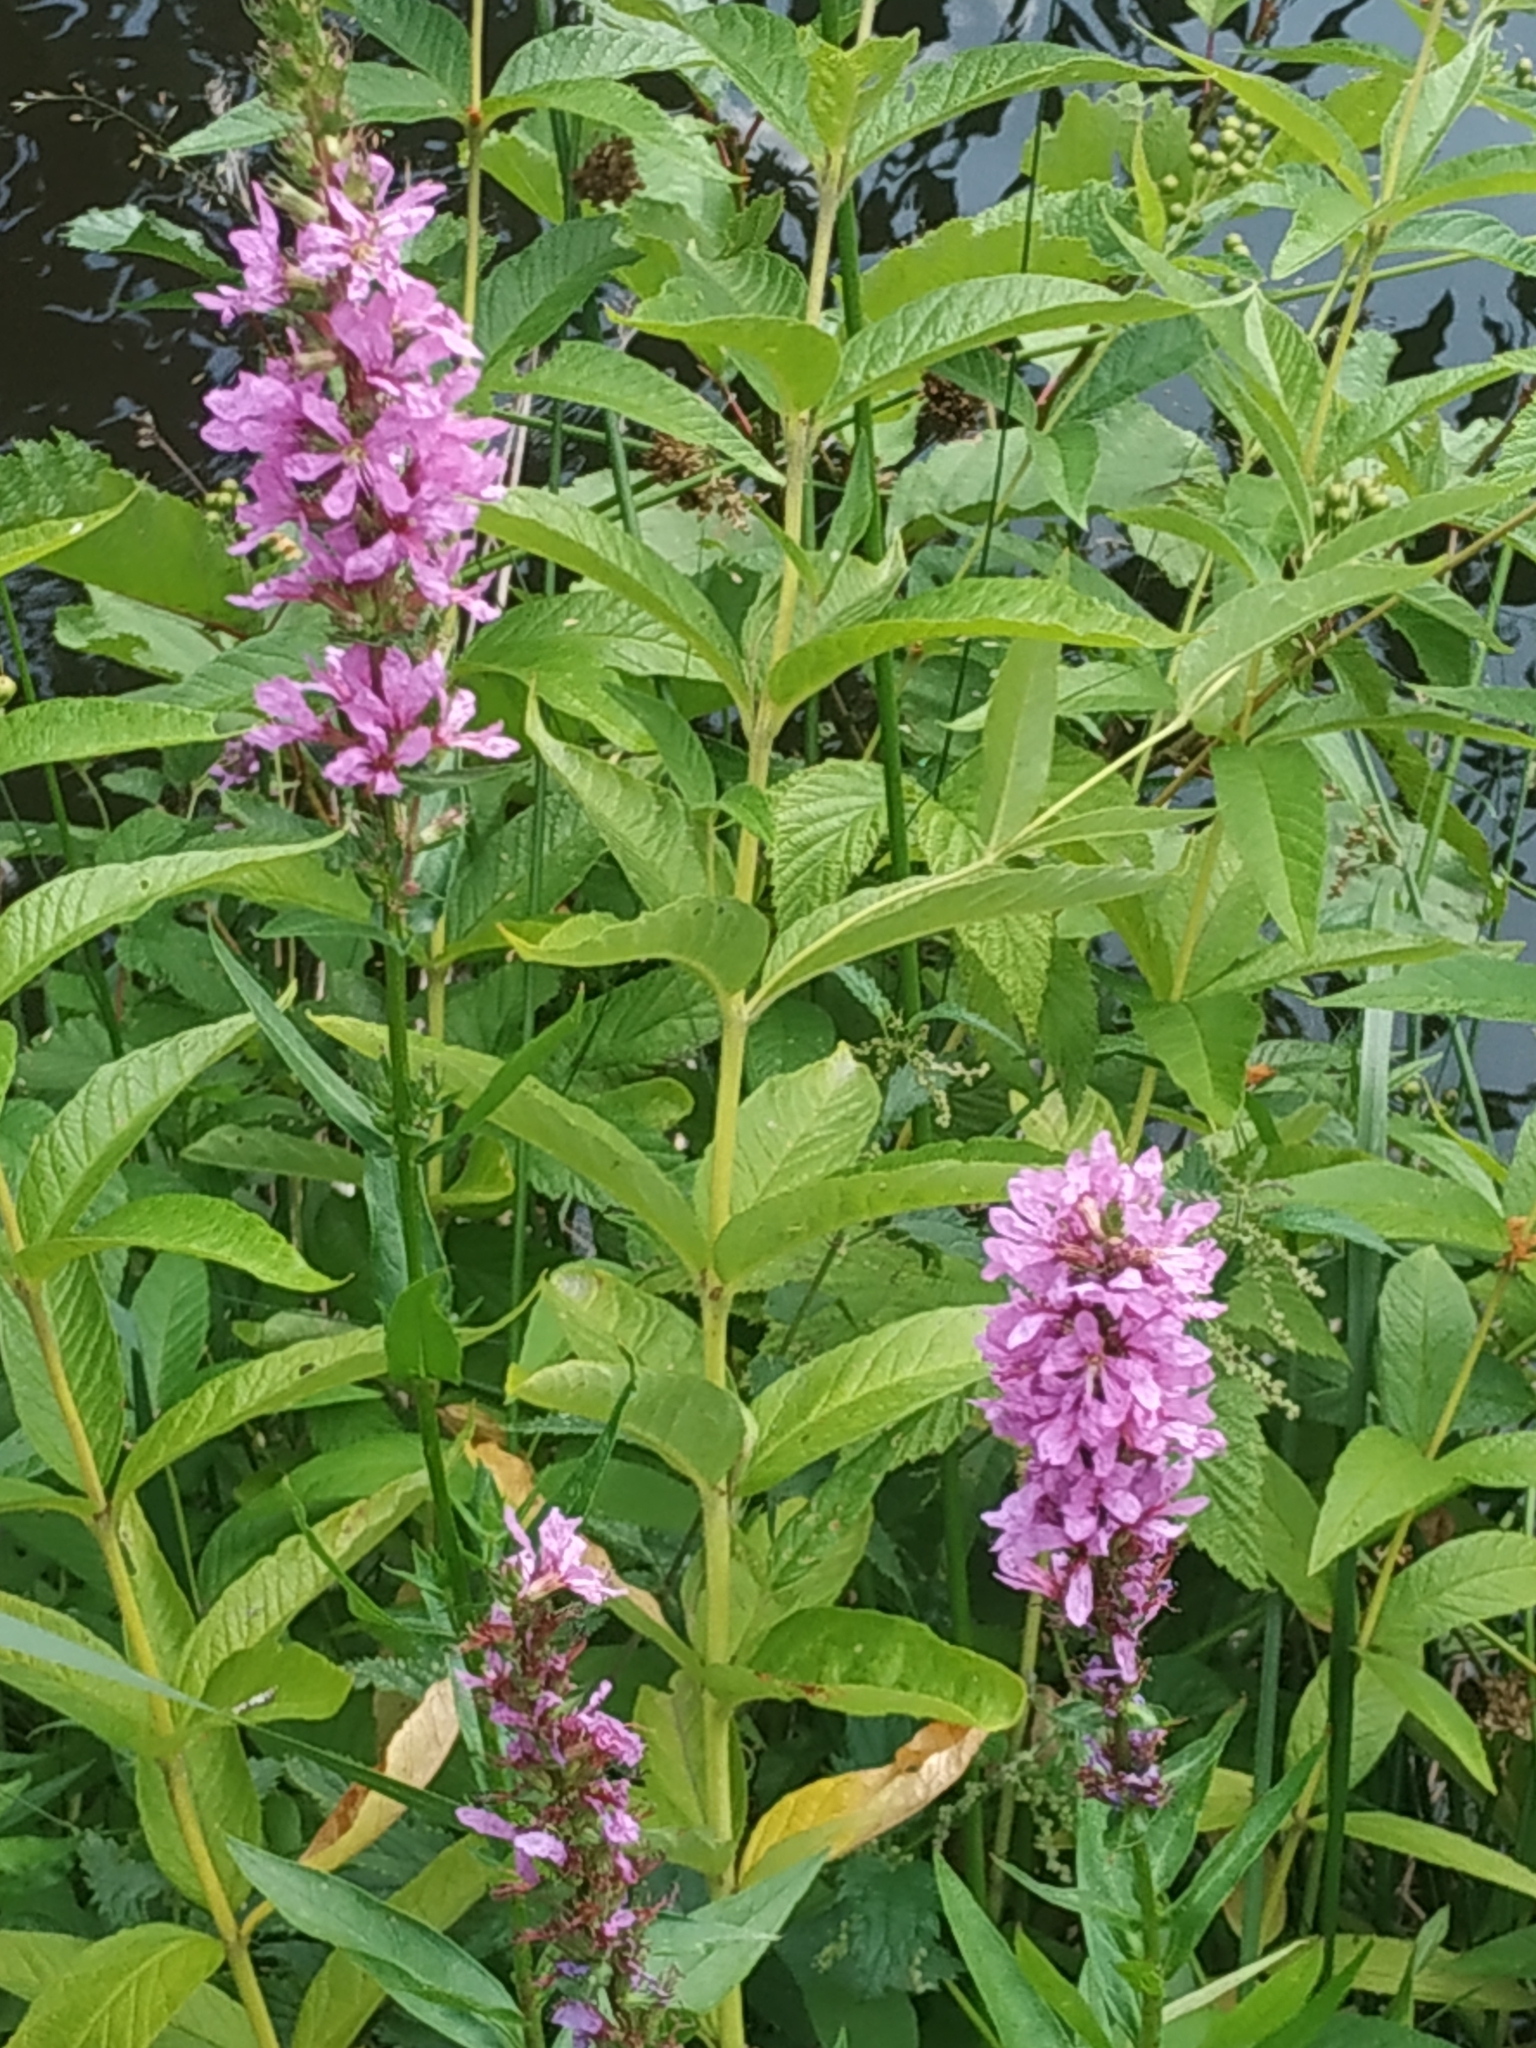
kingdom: Plantae
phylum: Tracheophyta
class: Magnoliopsida
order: Myrtales
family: Lythraceae
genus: Lythrum
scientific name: Lythrum salicaria
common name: Purple loosestrife
